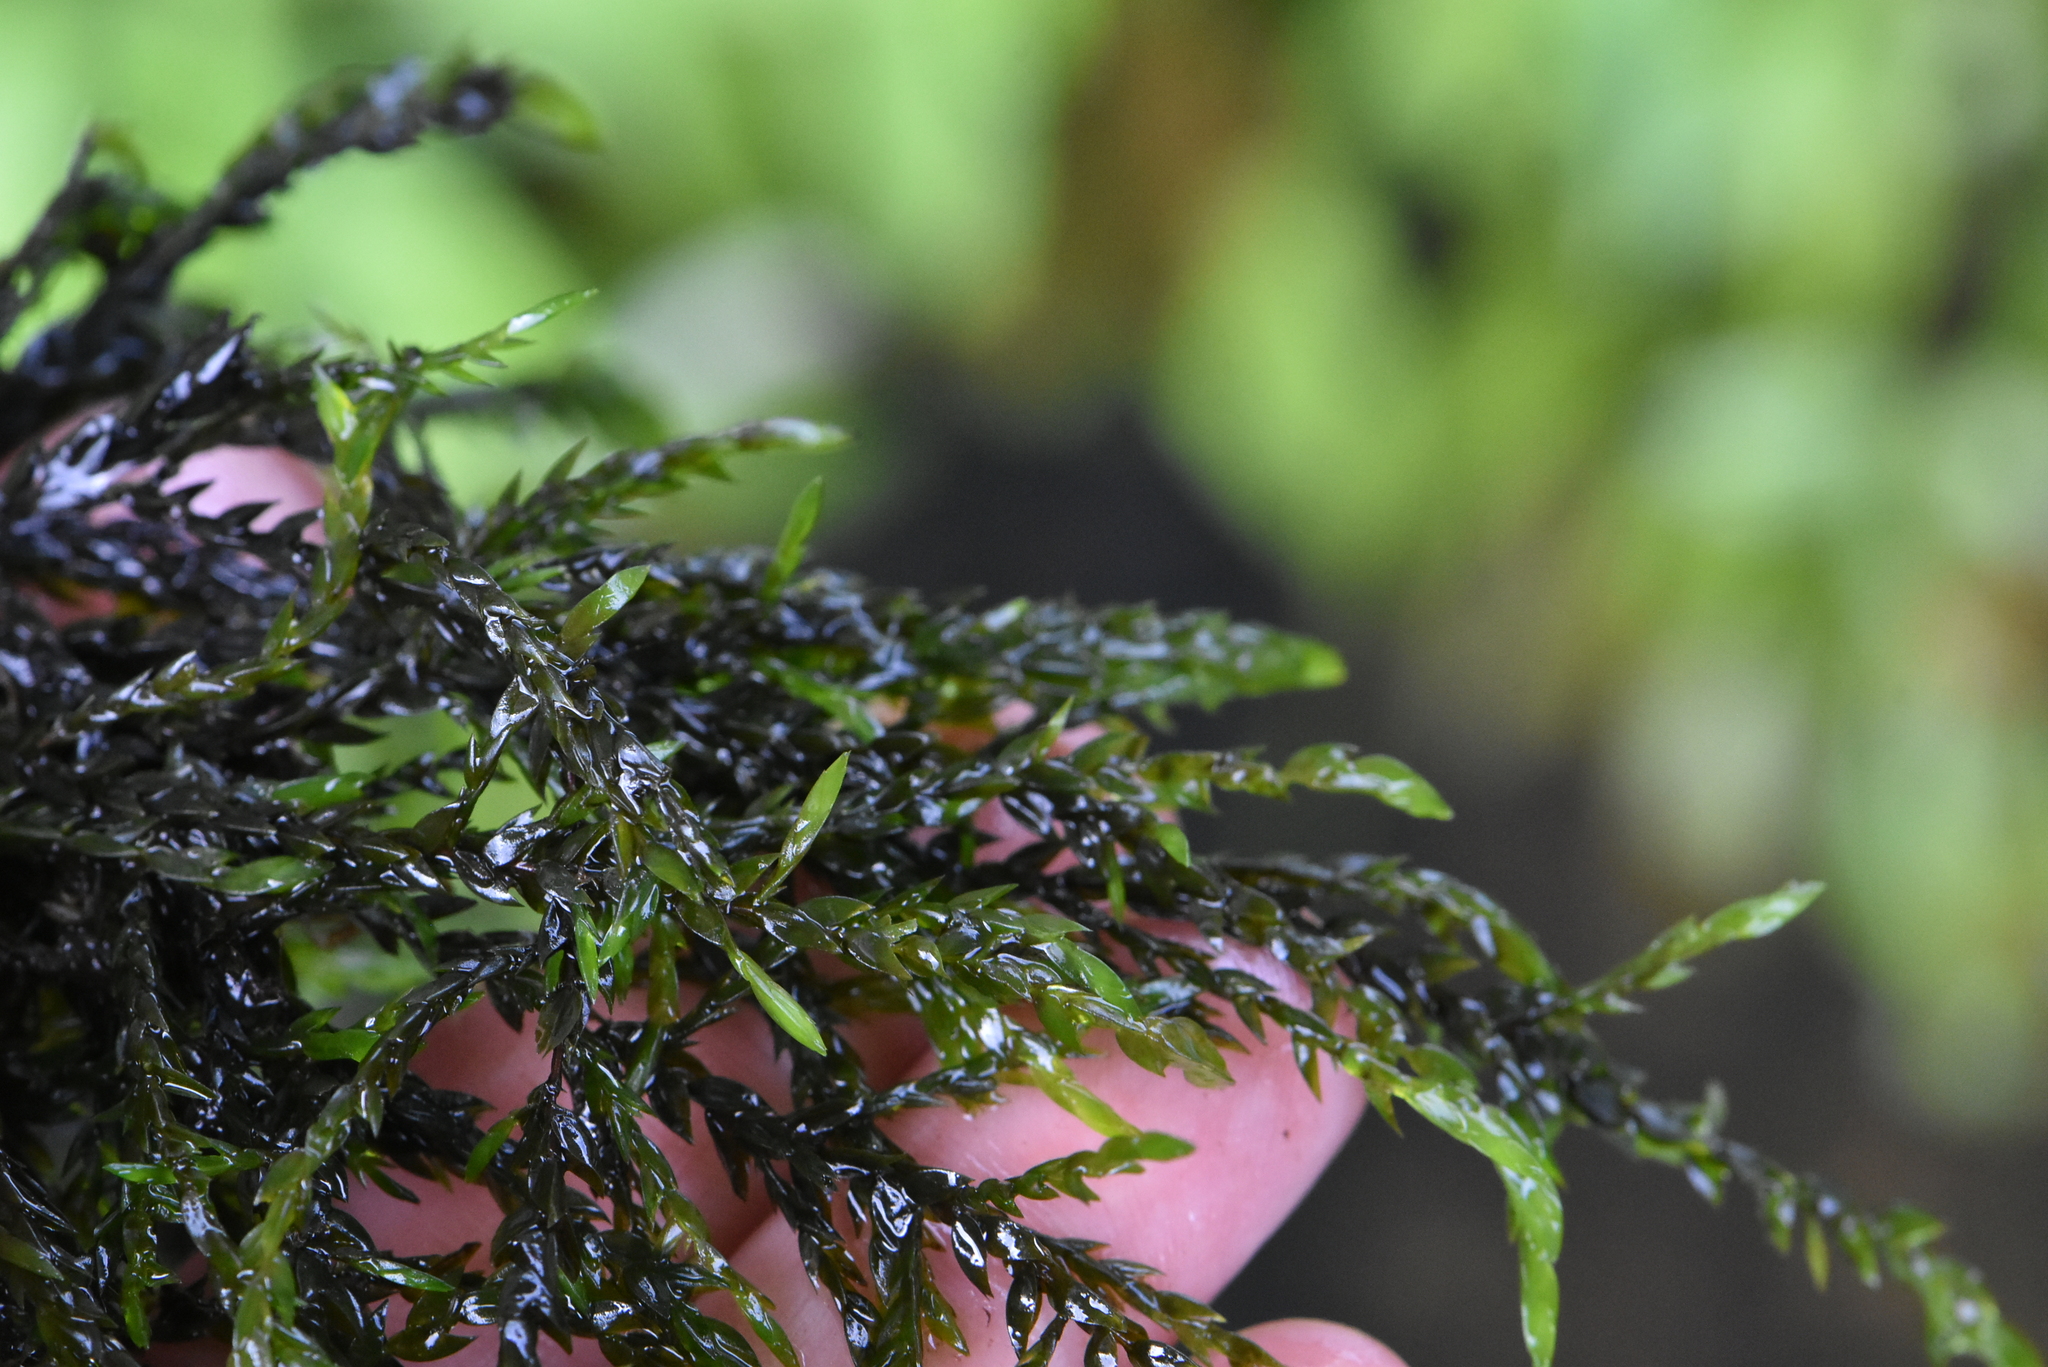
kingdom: Plantae
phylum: Bryophyta
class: Bryopsida
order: Hypnales
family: Fontinalaceae
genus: Fontinalis
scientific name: Fontinalis antipyretica
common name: Greater water-moss
